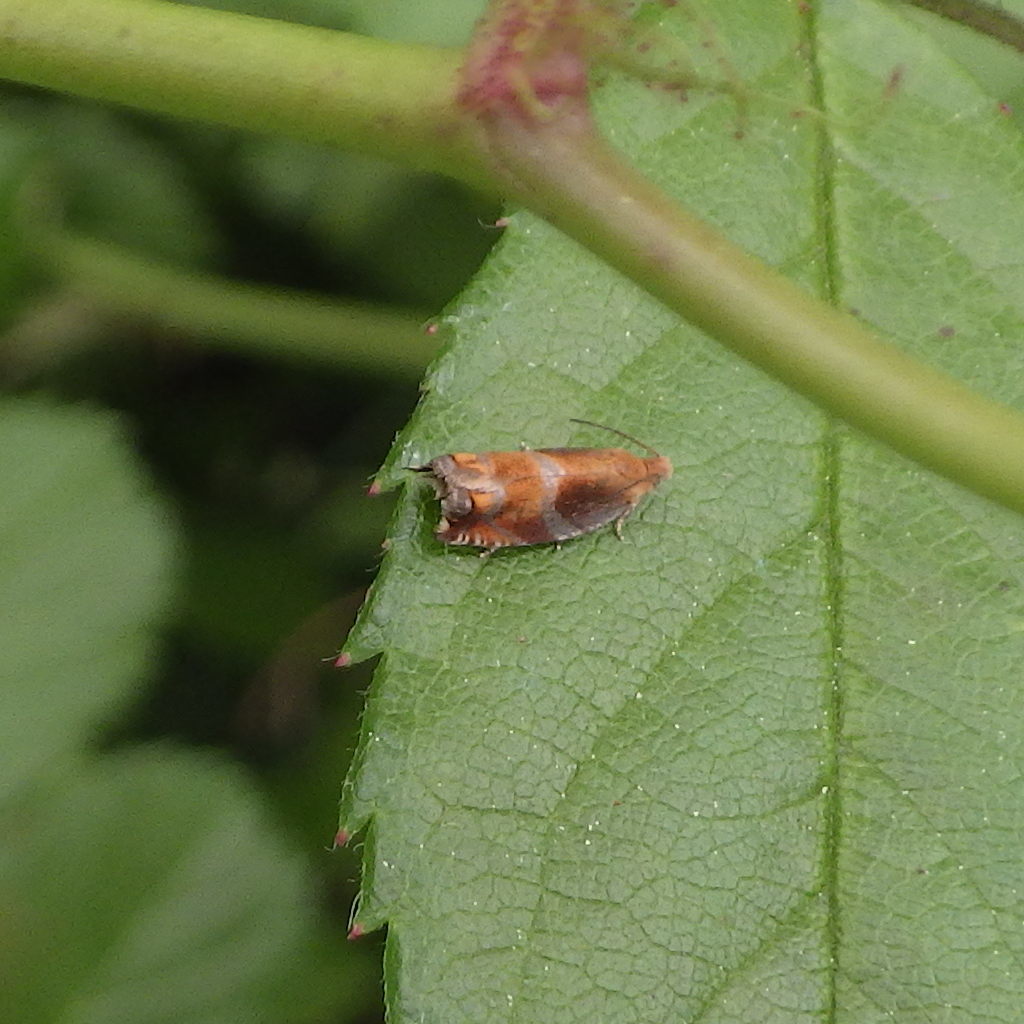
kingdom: Animalia
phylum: Arthropoda
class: Insecta
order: Lepidoptera
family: Tortricidae
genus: Ancylis
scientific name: Ancylis apicana
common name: Raspberry leaffolder moth
